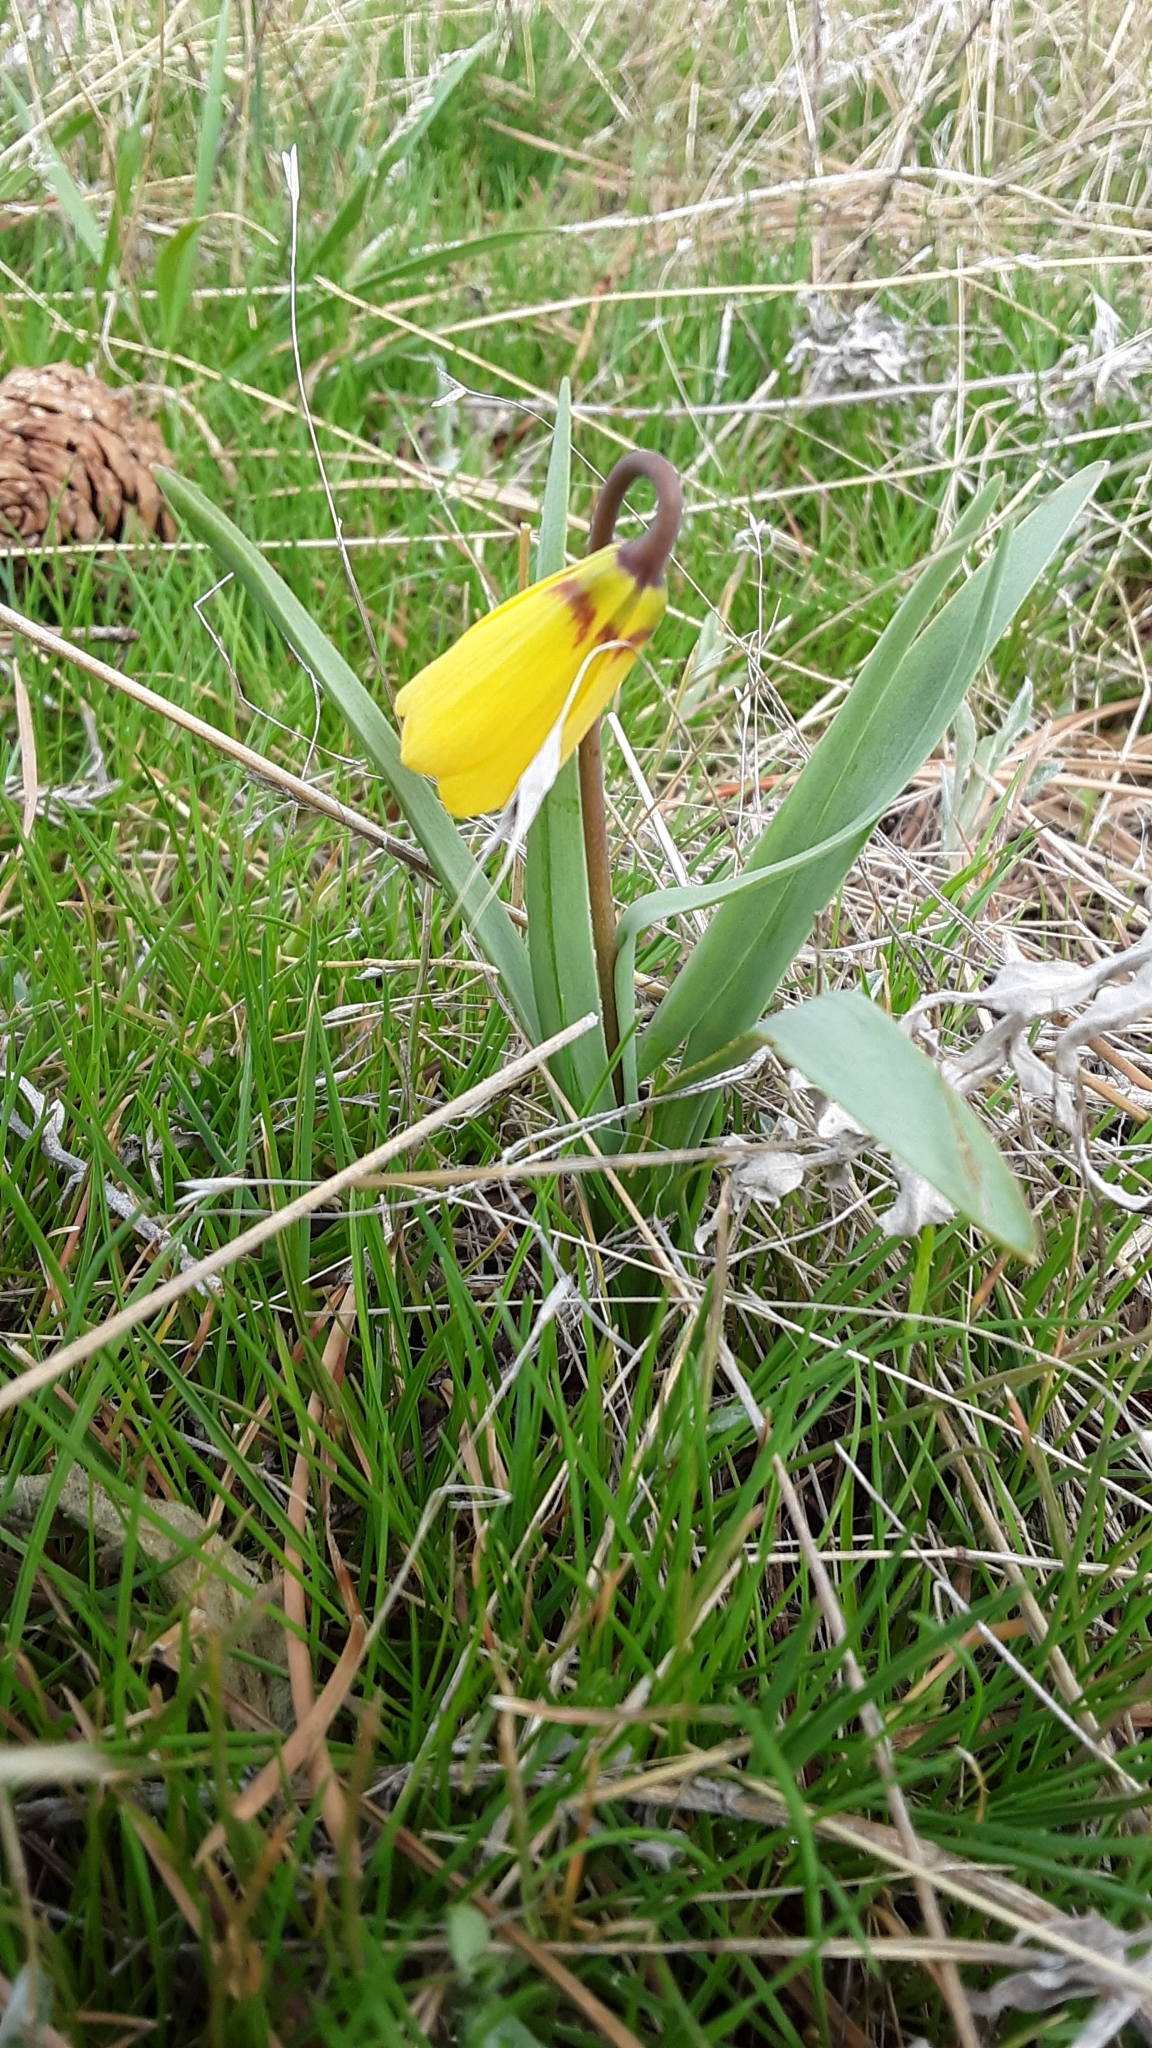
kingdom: Plantae
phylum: Tracheophyta
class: Liliopsida
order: Liliales
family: Liliaceae
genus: Fritillaria
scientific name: Fritillaria pudica
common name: Yellow fritillary
